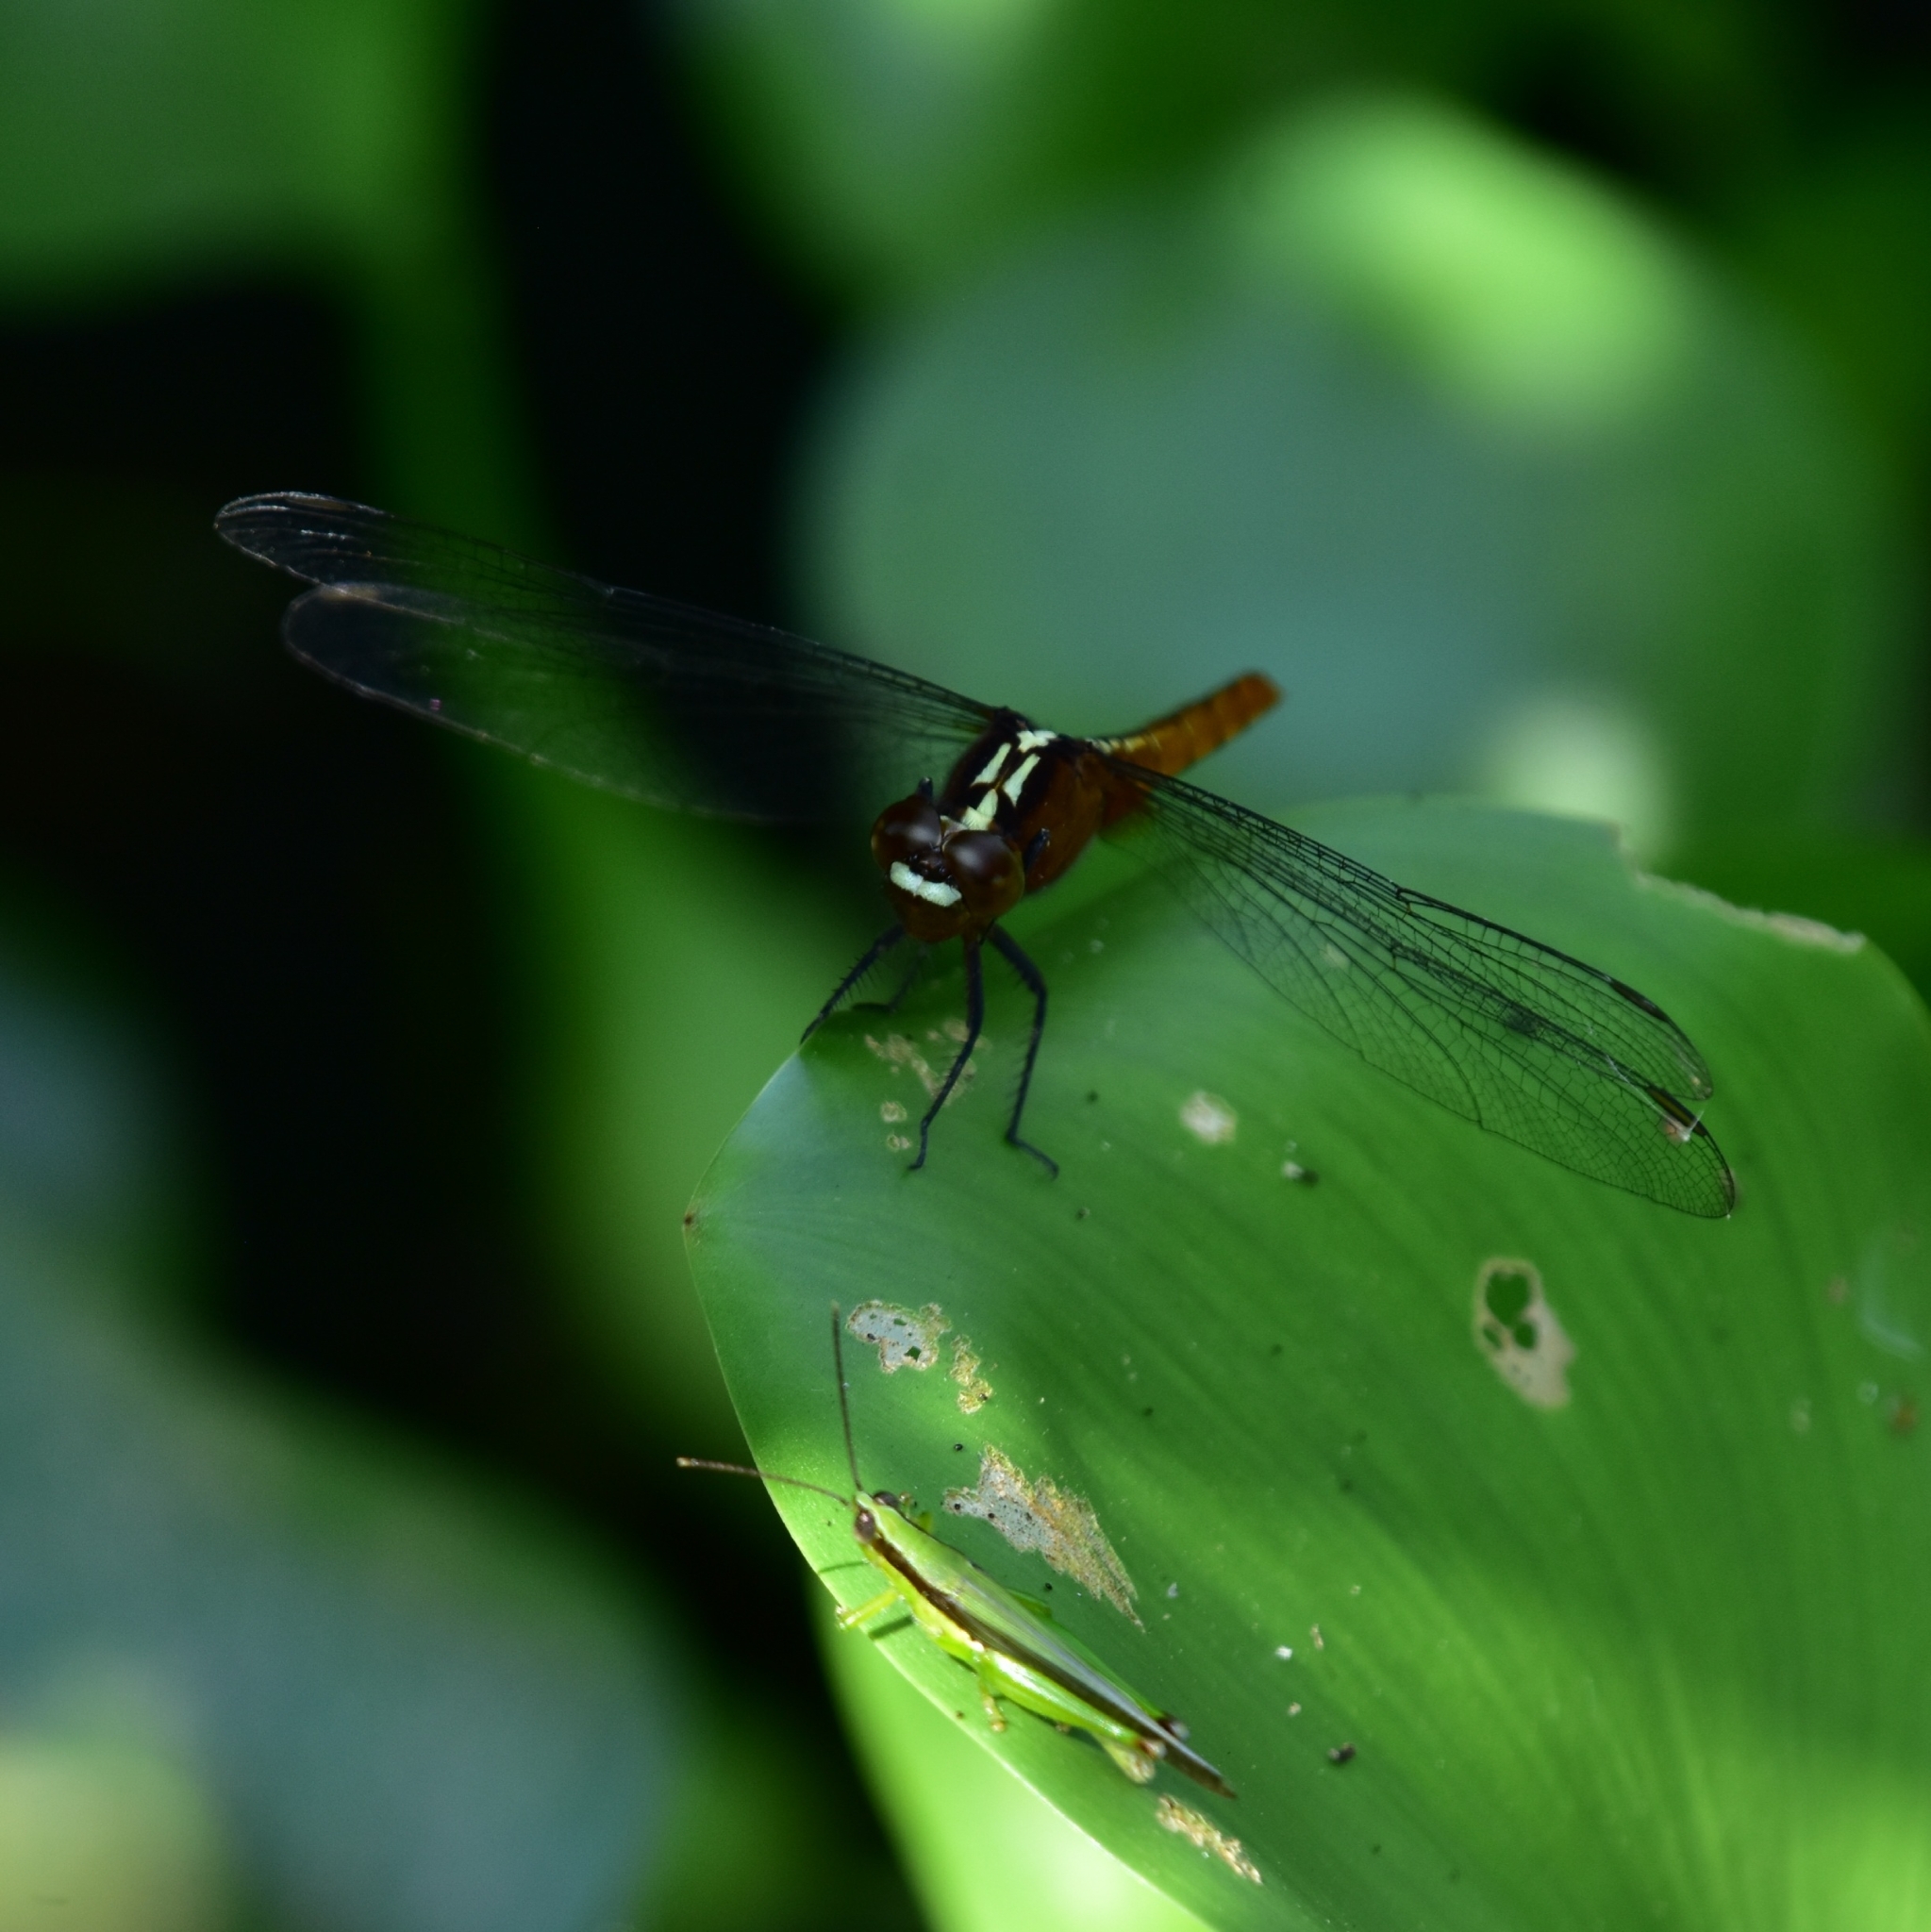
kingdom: Animalia
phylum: Arthropoda
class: Insecta
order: Odonata
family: Libellulidae
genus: Rhodothemis
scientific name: Rhodothemis rufa
